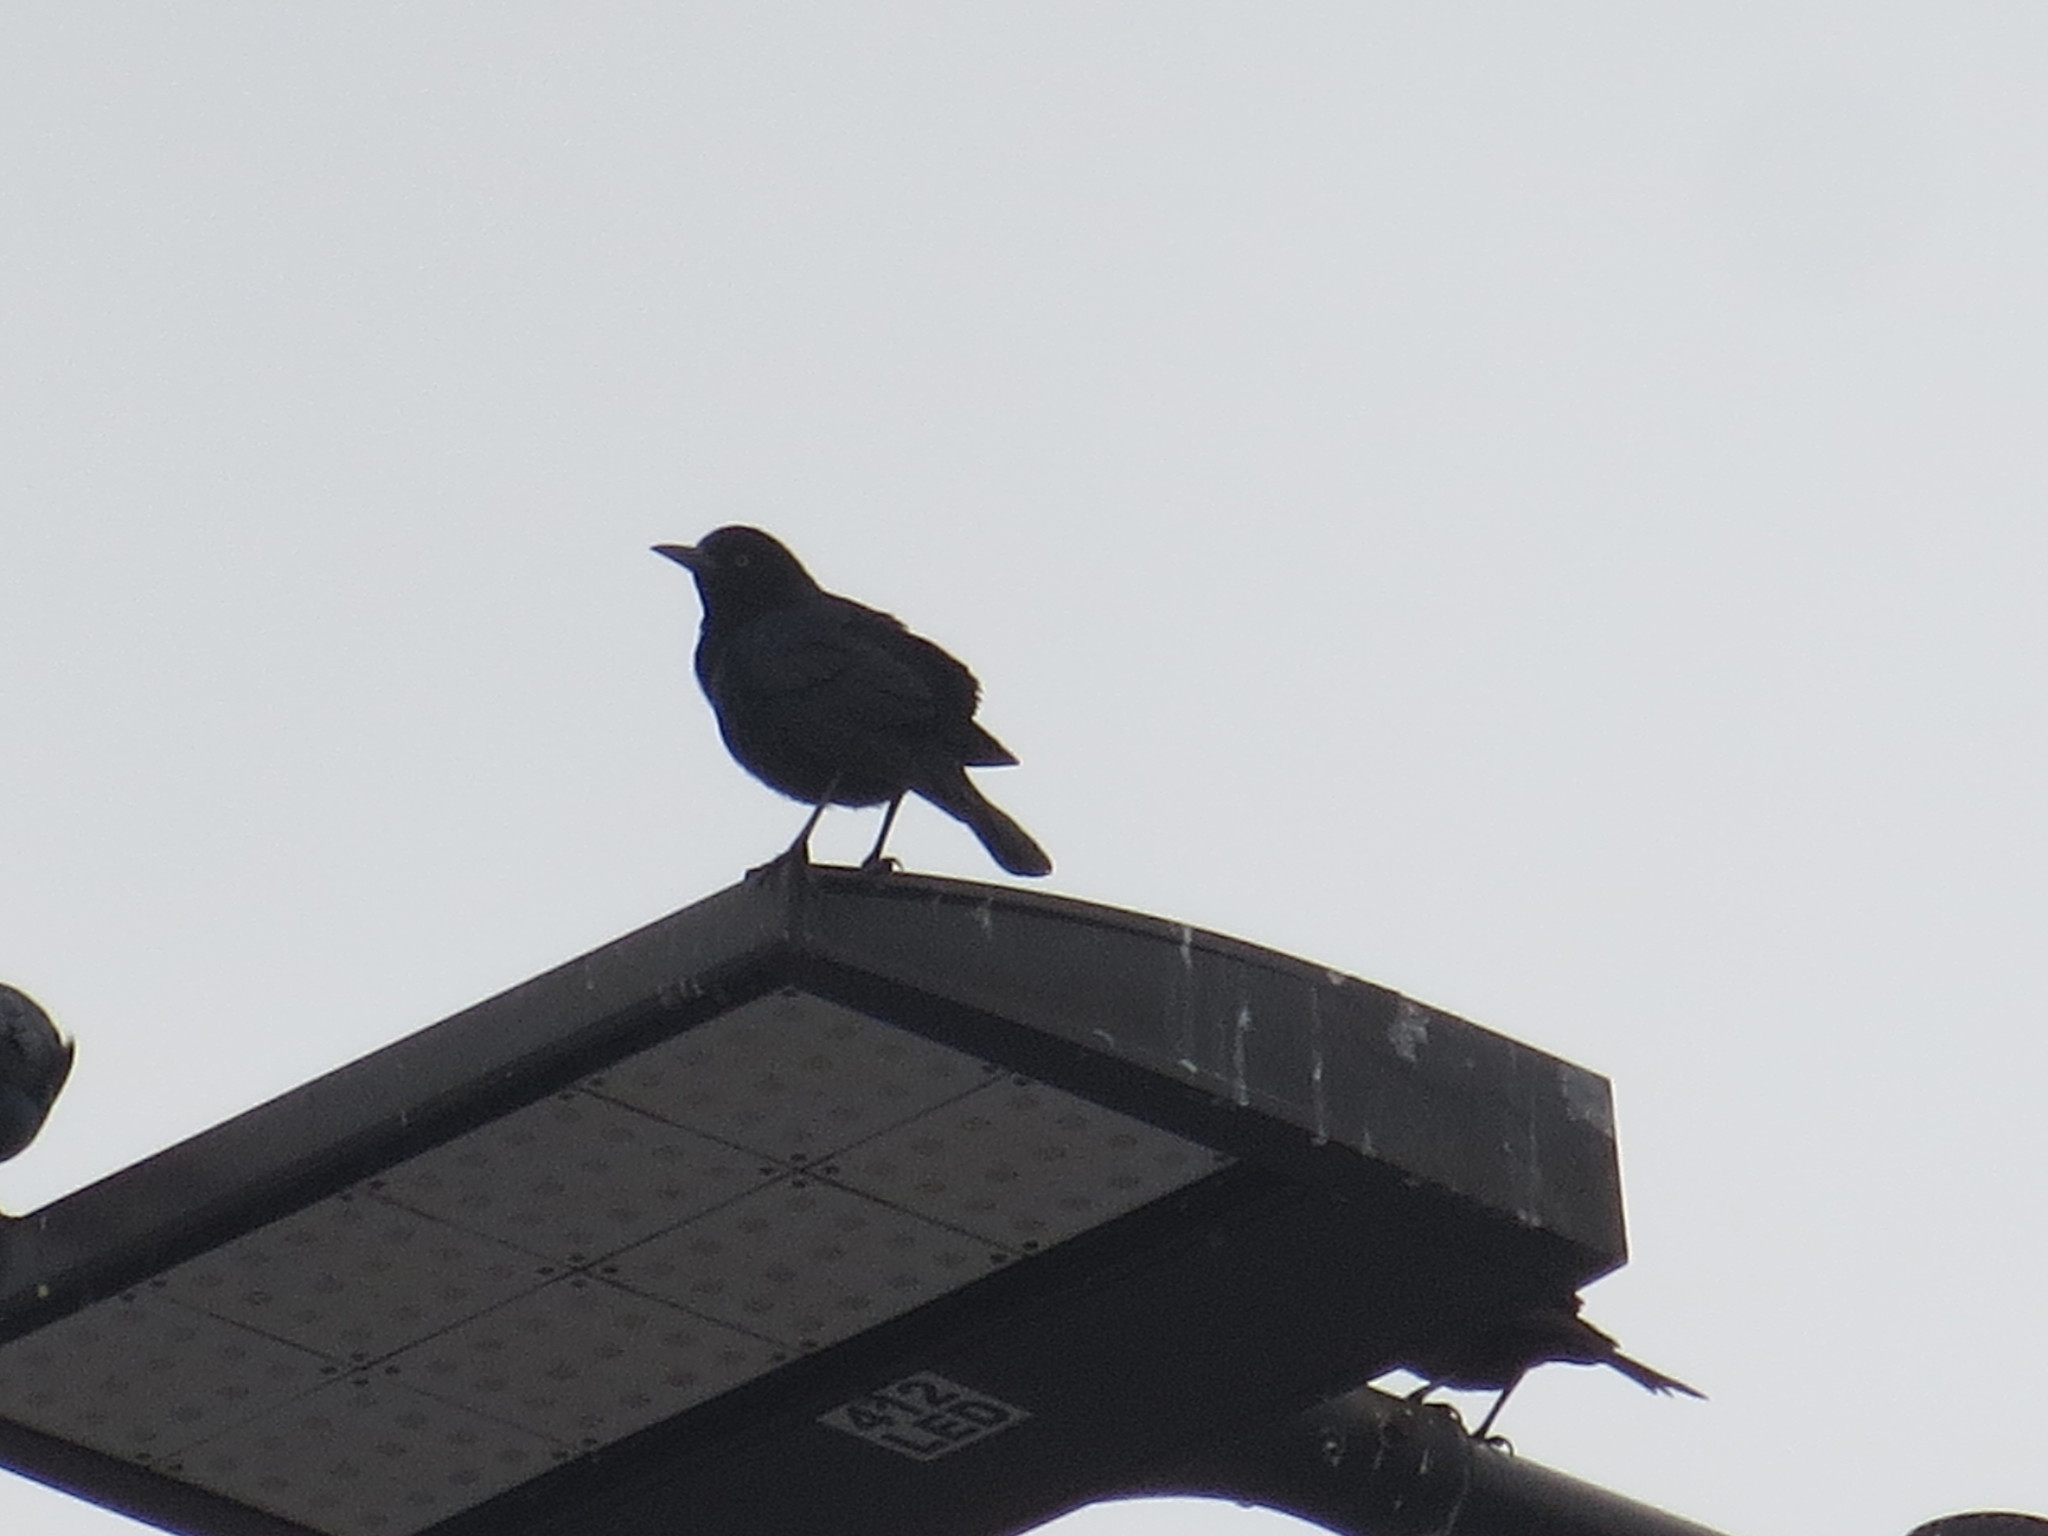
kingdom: Animalia
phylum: Chordata
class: Aves
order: Passeriformes
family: Icteridae
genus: Quiscalus
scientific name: Quiscalus major
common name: Boat-tailed grackle
